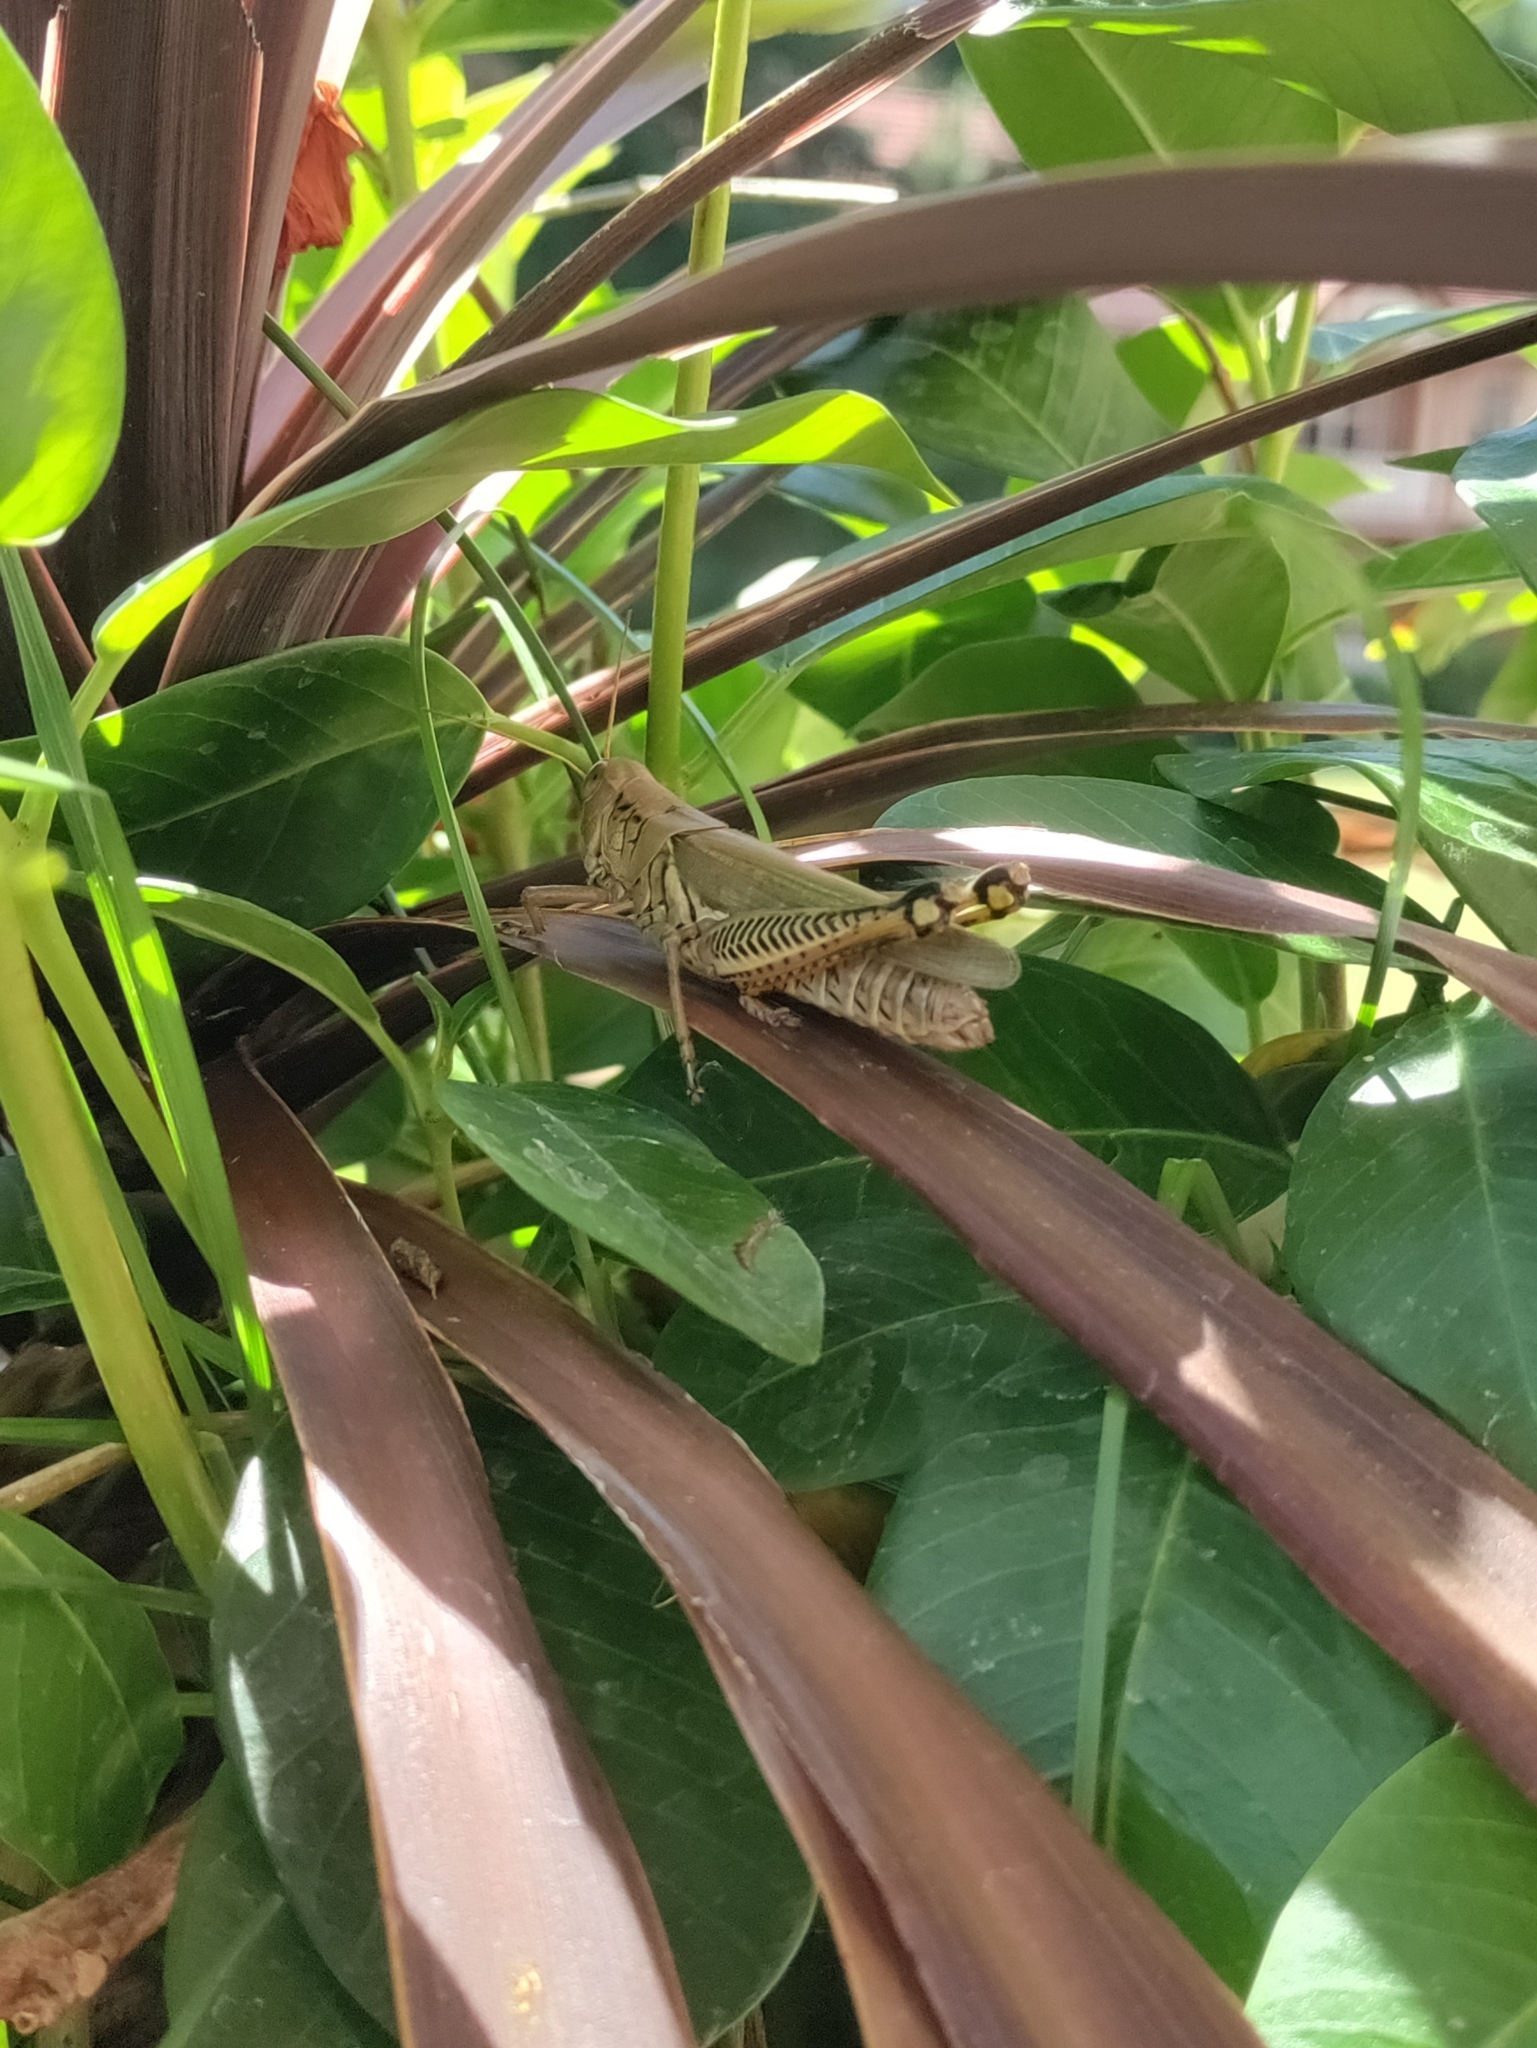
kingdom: Animalia
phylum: Arthropoda
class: Insecta
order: Orthoptera
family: Acrididae
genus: Melanoplus
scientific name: Melanoplus differentialis
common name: Differential grasshopper
